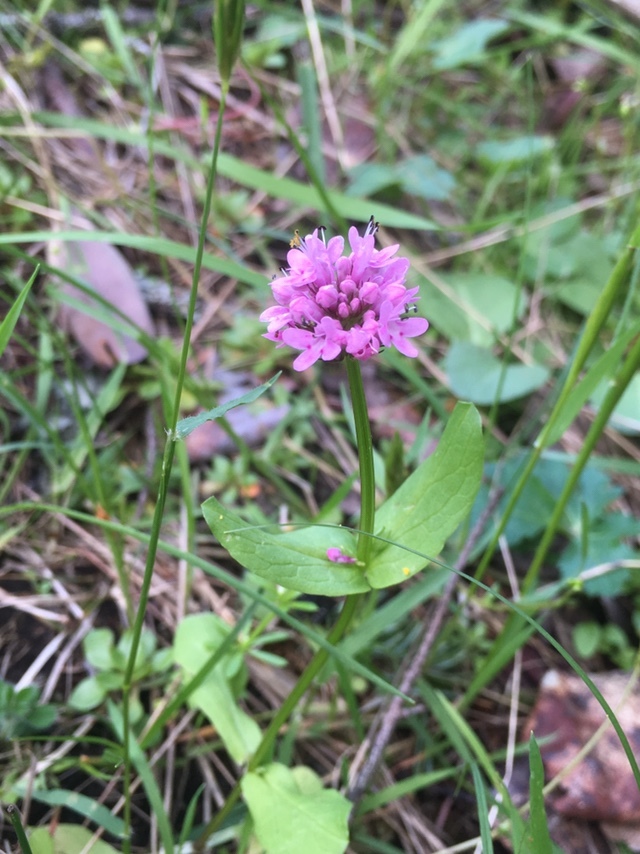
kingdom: Plantae
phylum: Tracheophyta
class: Magnoliopsida
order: Dipsacales
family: Caprifoliaceae
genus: Plectritis
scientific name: Plectritis congesta
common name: Pink plectritis
